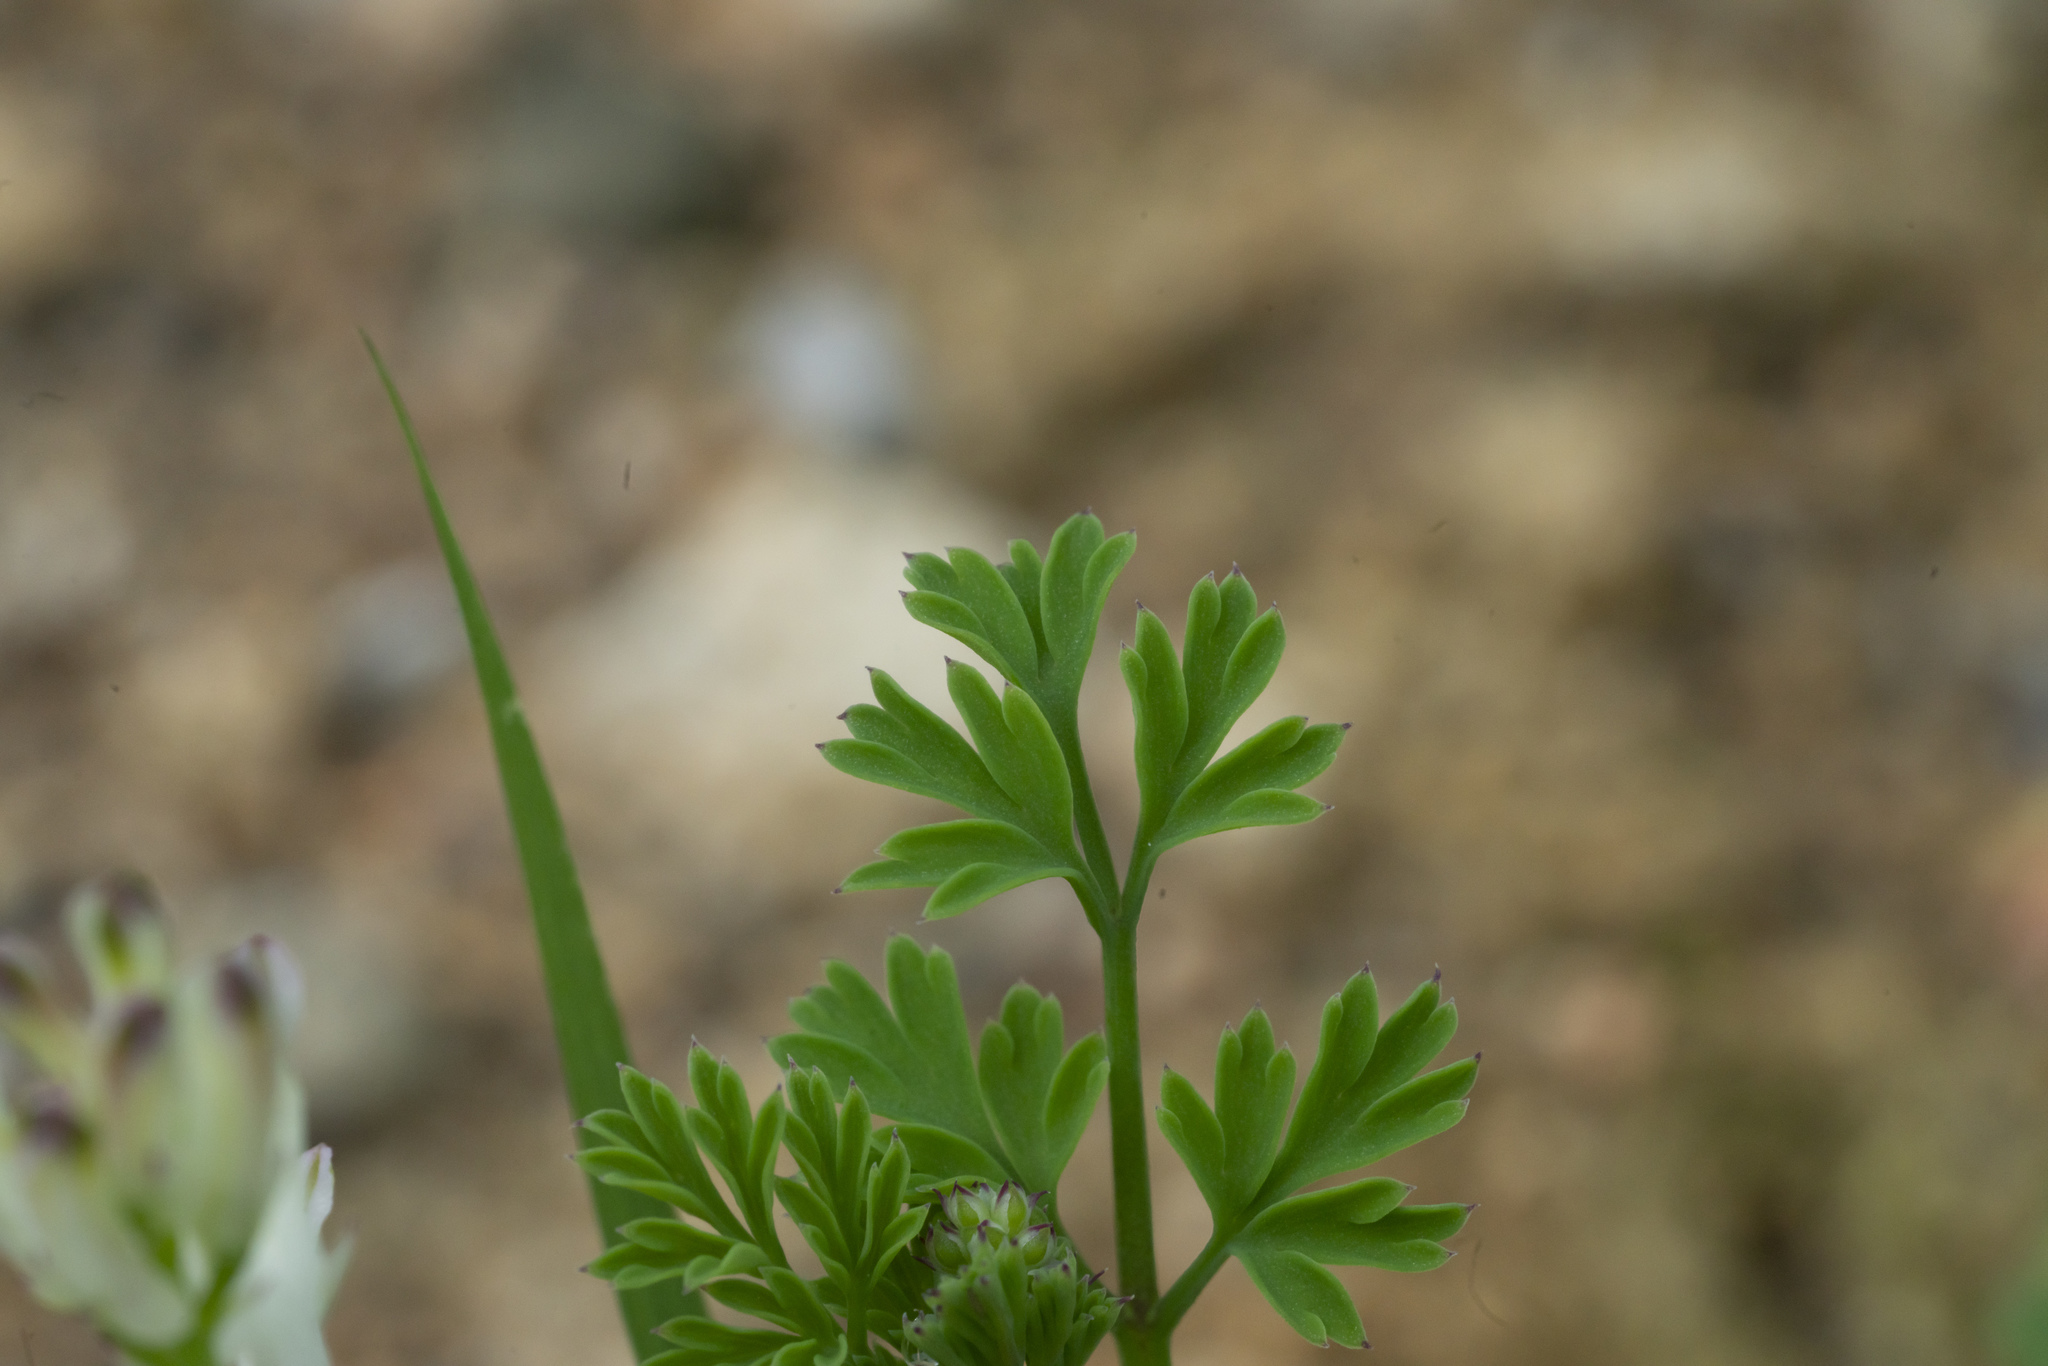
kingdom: Plantae
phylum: Tracheophyta
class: Magnoliopsida
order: Ranunculales
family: Papaveraceae
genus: Fumaria
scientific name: Fumaria judaica
